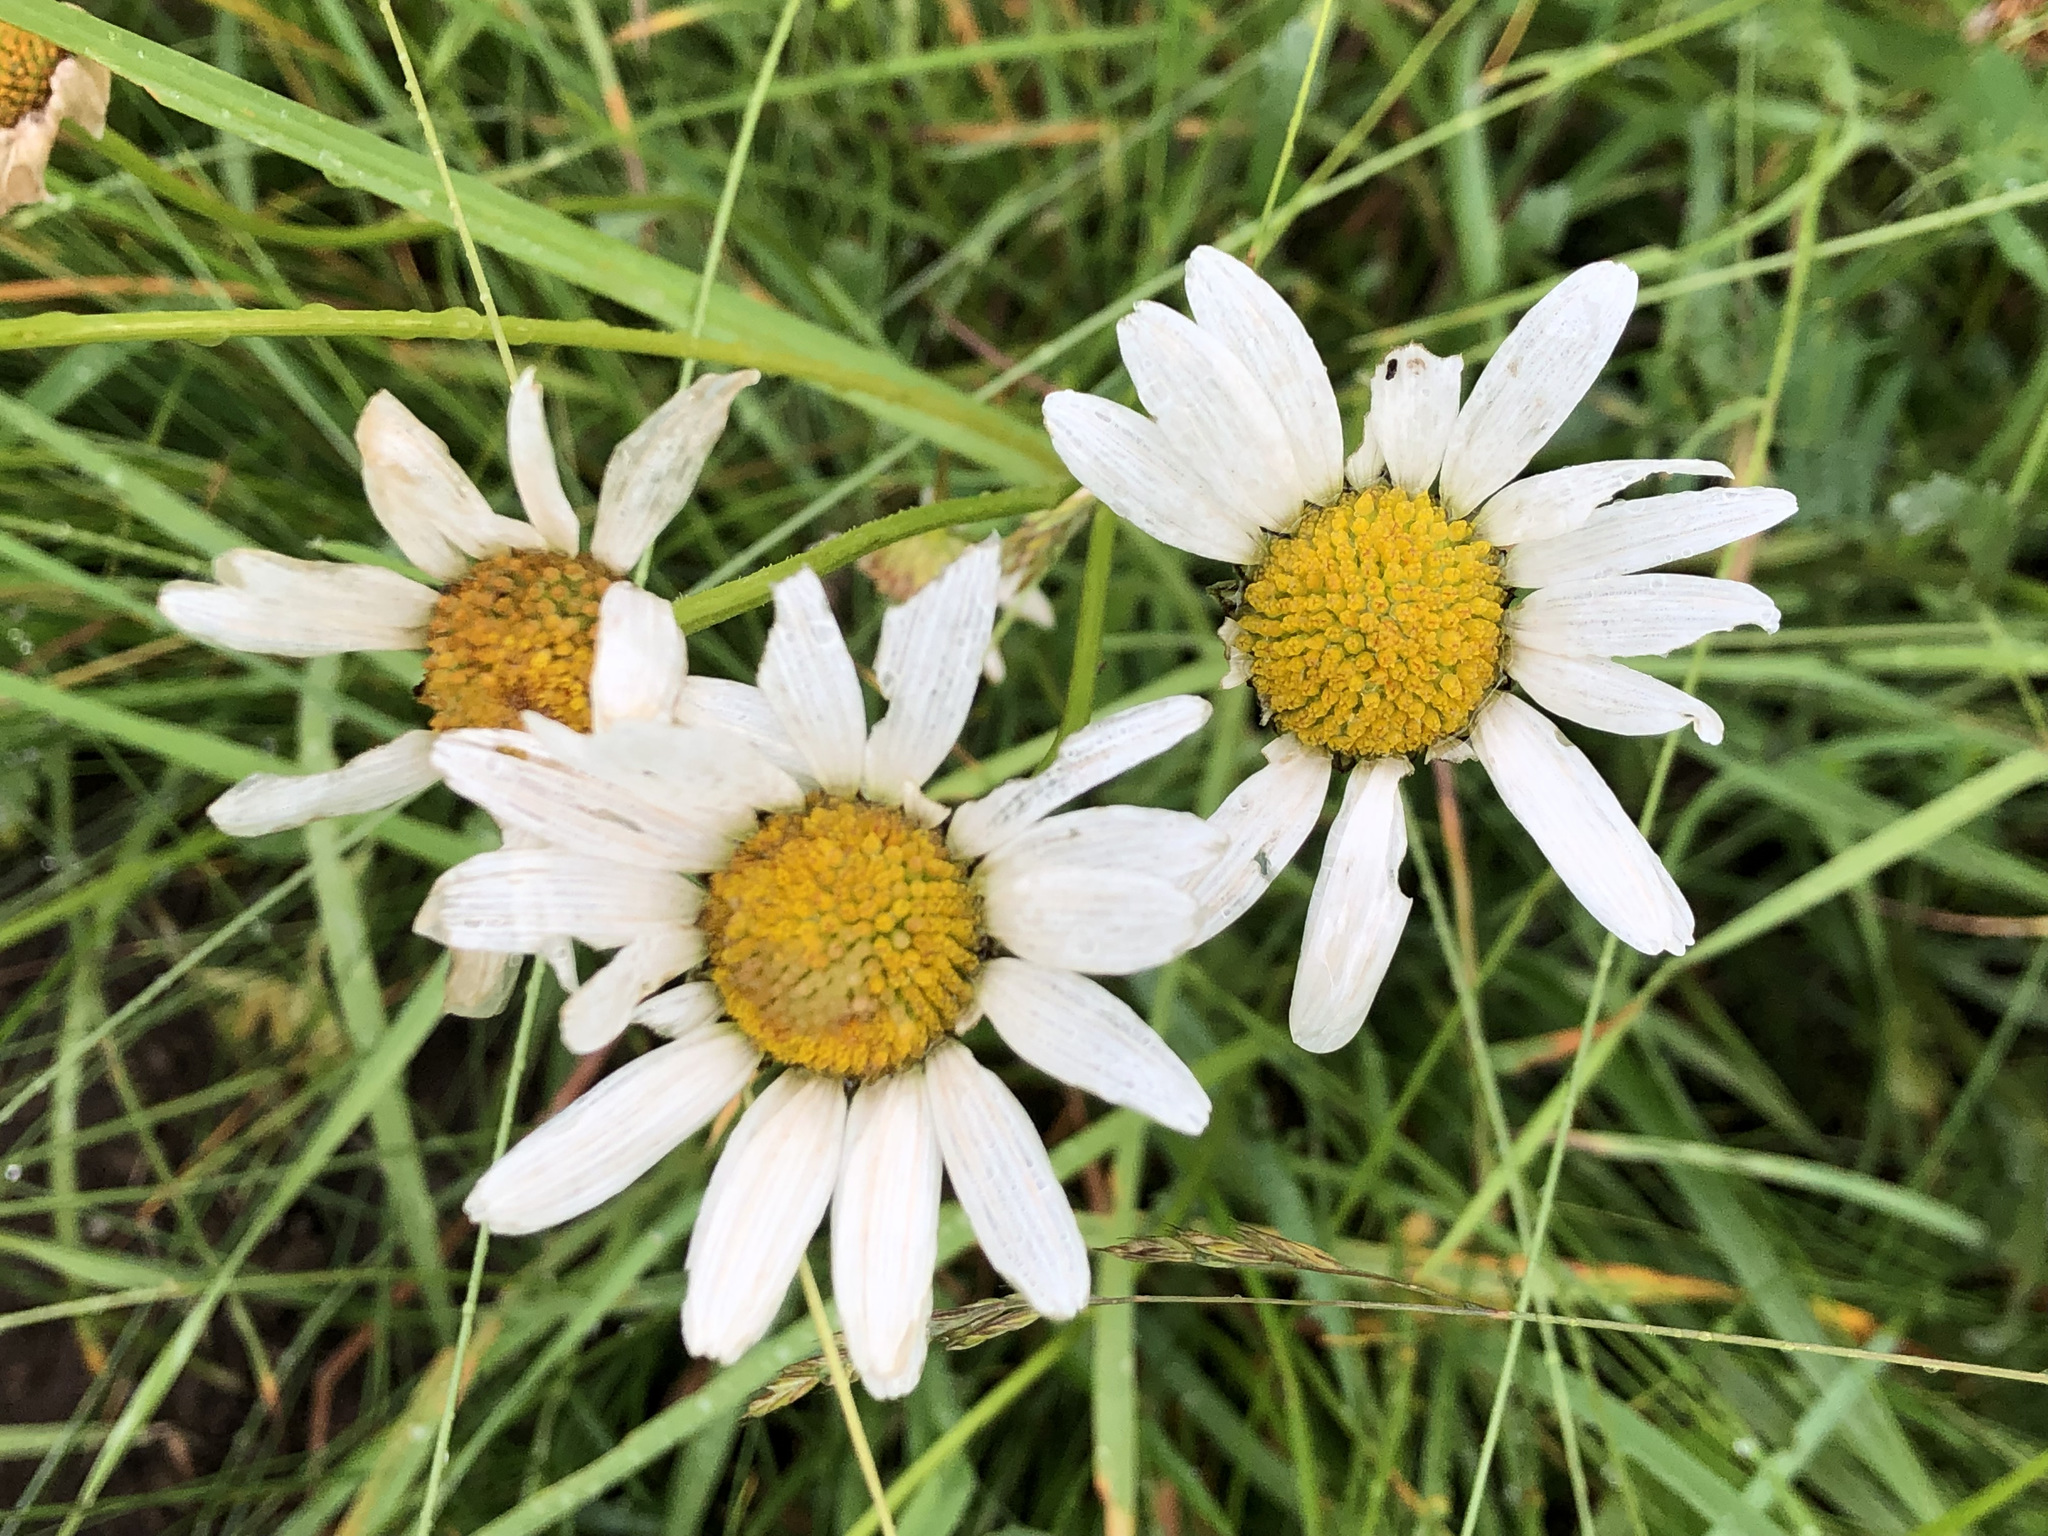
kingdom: Plantae
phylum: Tracheophyta
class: Magnoliopsida
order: Asterales
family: Asteraceae
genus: Leucanthemum
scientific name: Leucanthemum vulgare
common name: Oxeye daisy
